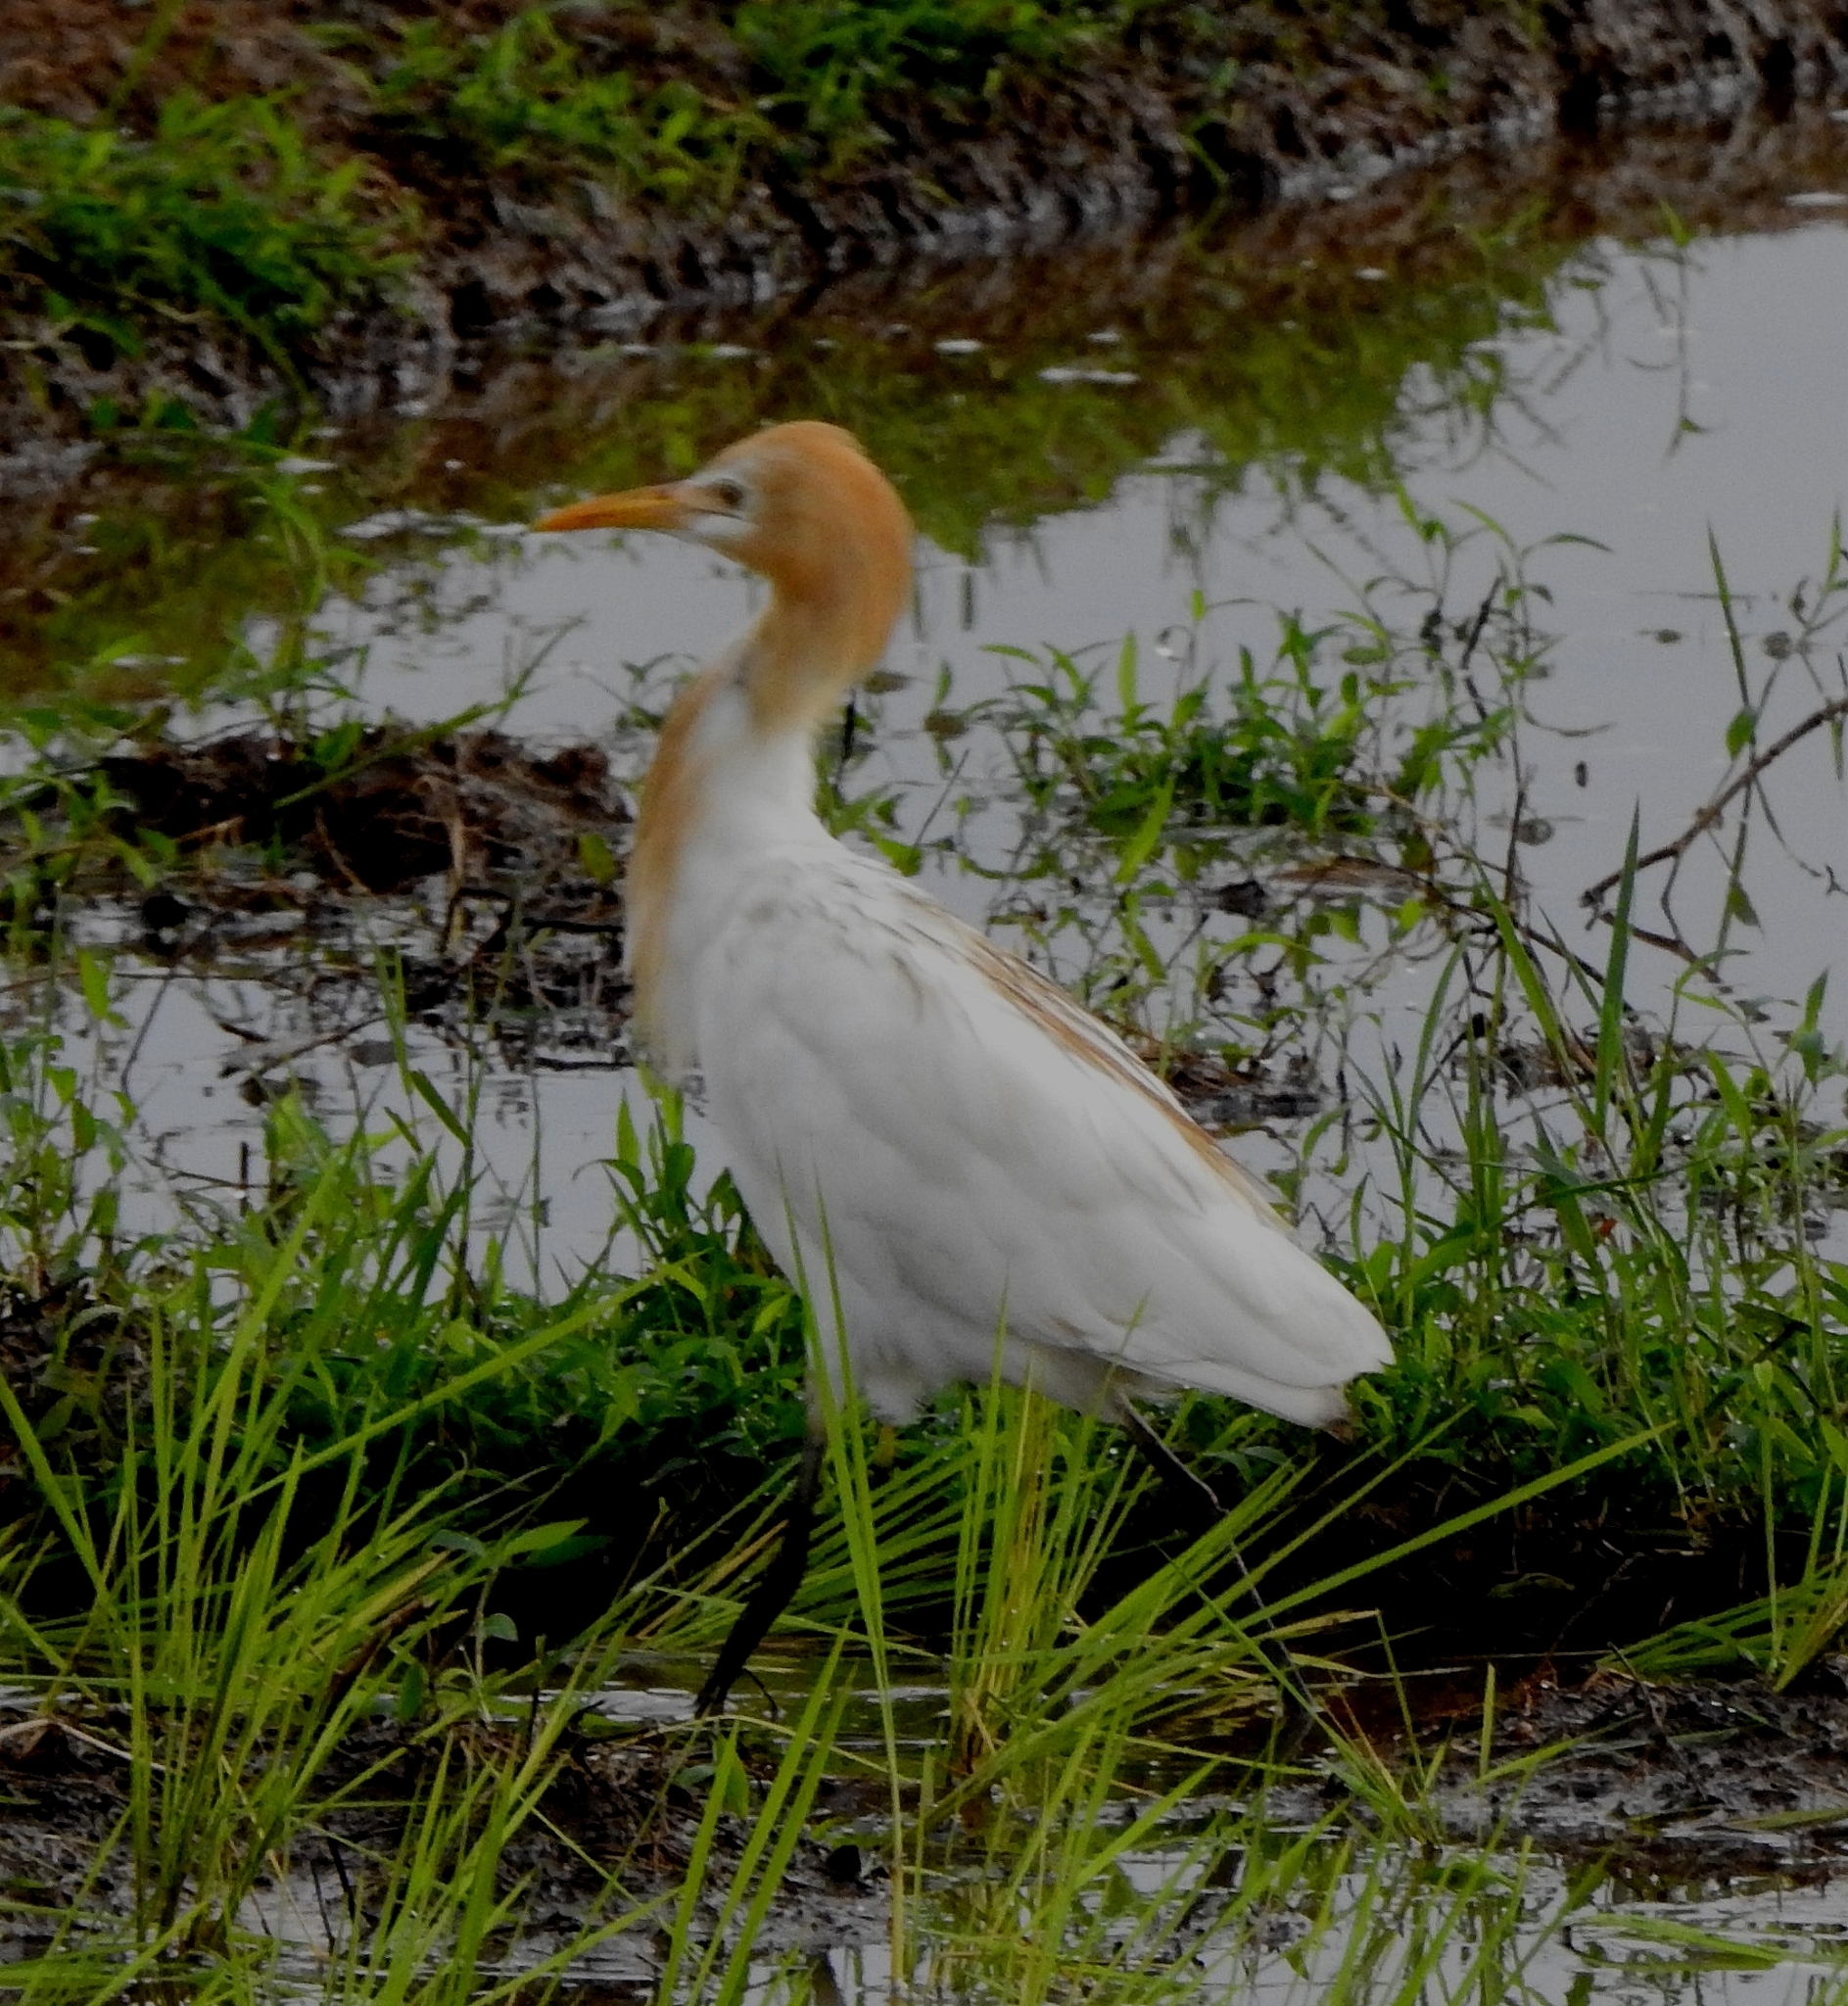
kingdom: Animalia
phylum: Chordata
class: Aves
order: Pelecaniformes
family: Ardeidae
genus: Bubulcus
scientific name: Bubulcus coromandus
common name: Eastern cattle egret
